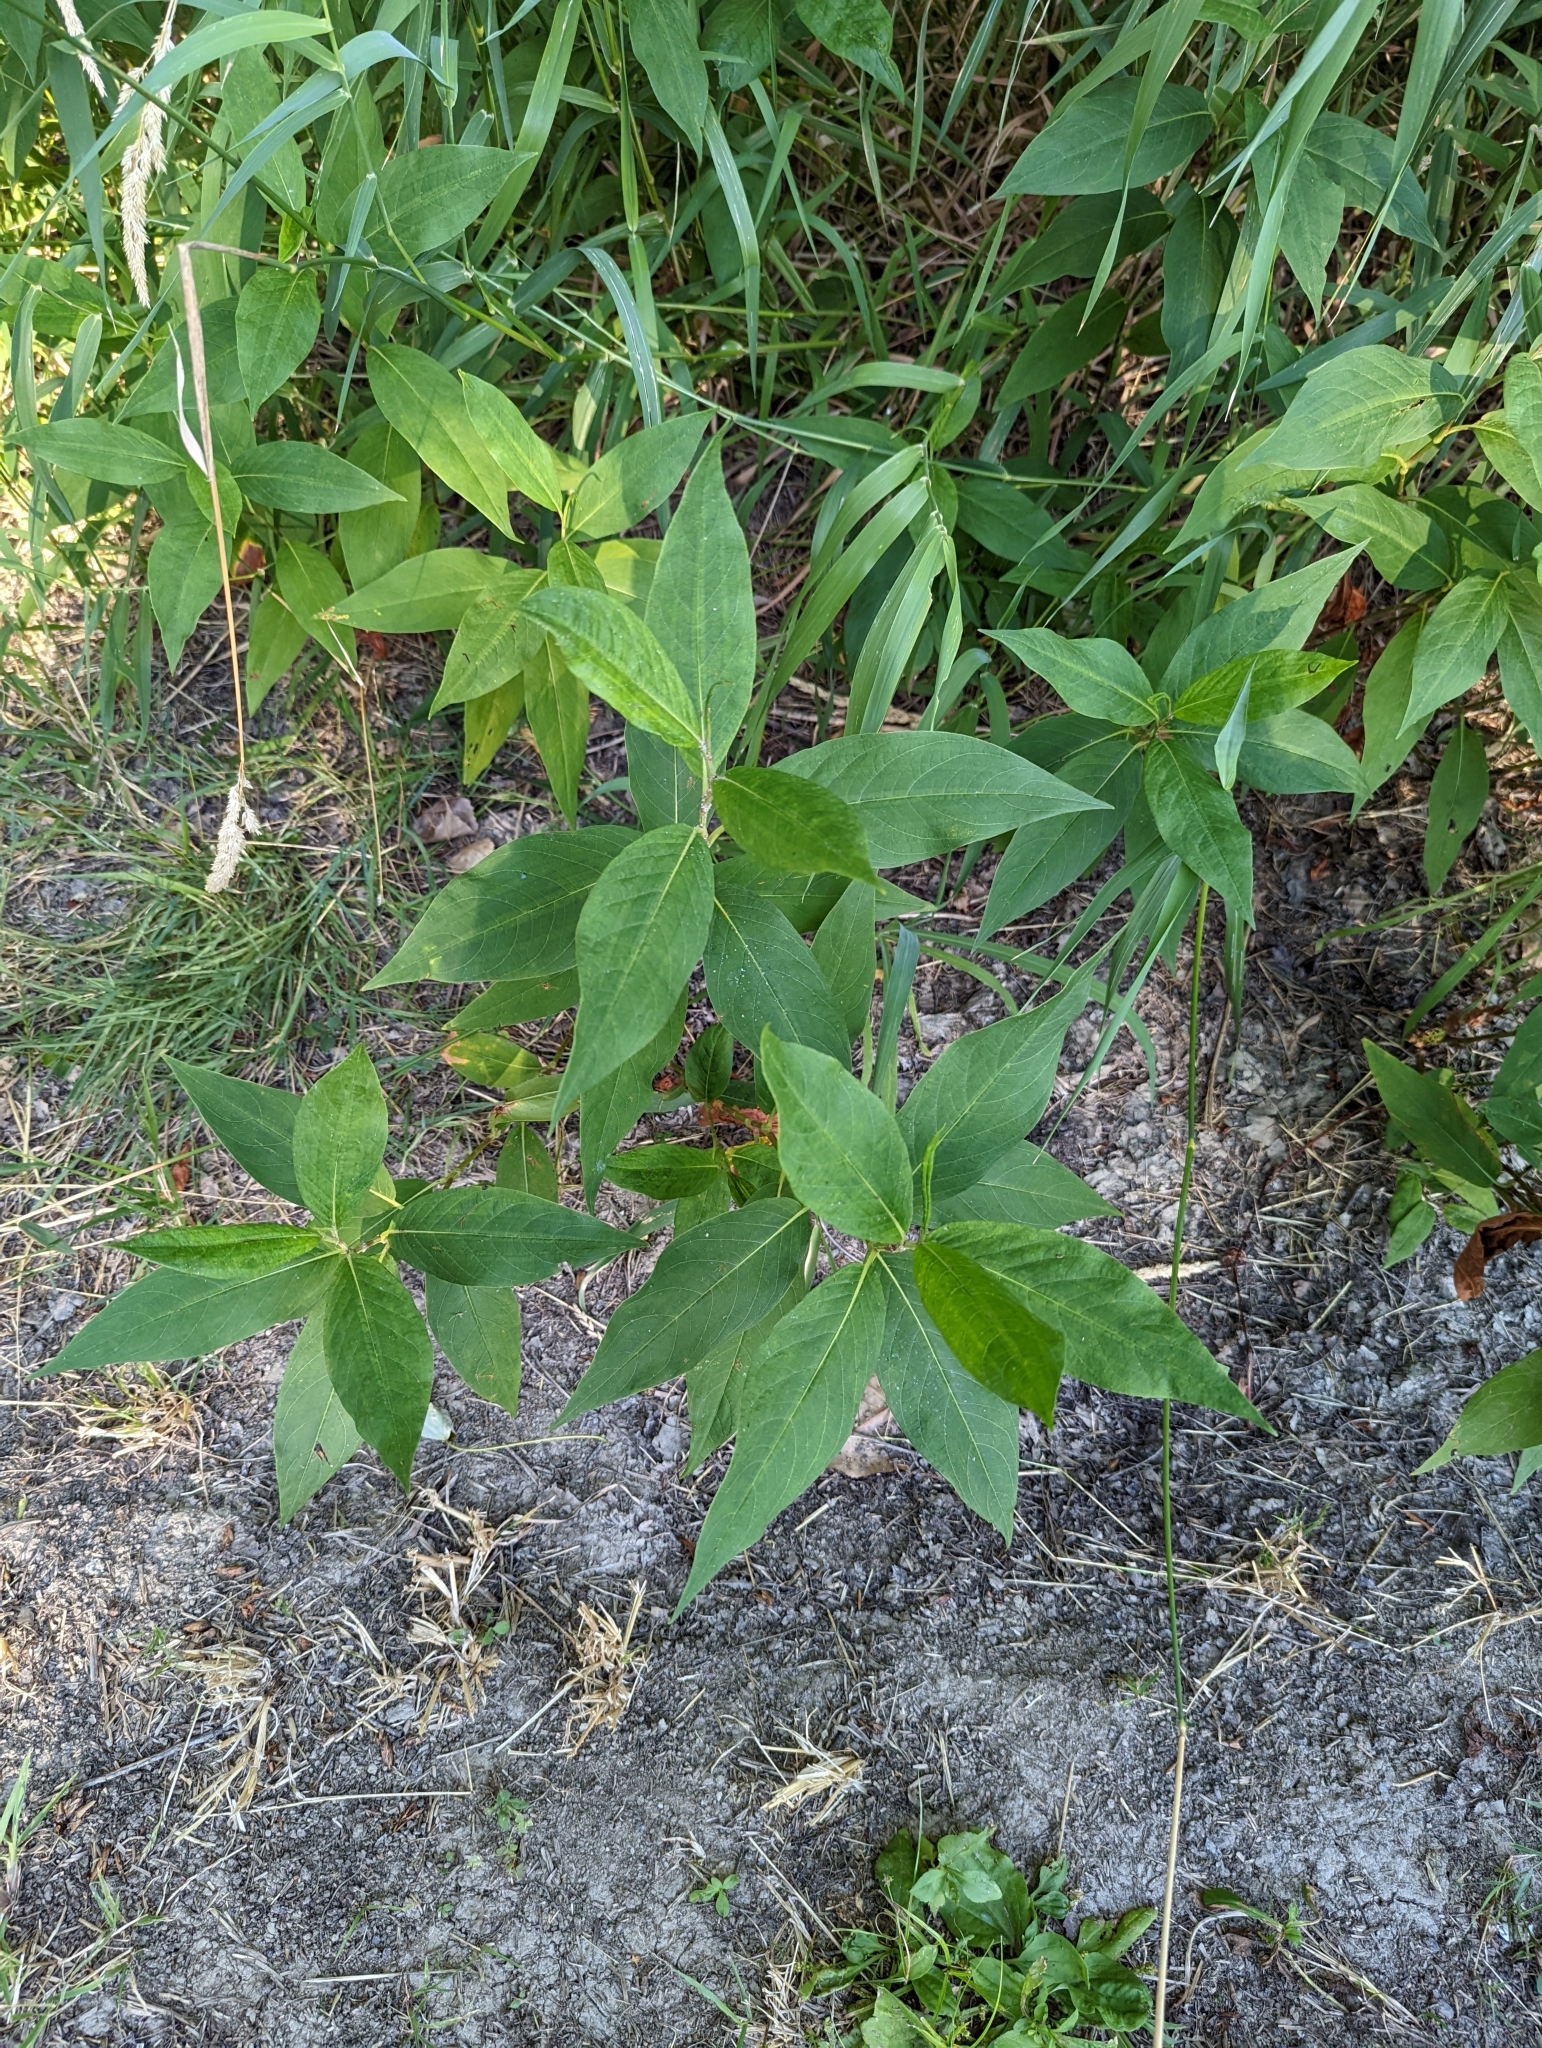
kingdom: Plantae
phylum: Tracheophyta
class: Magnoliopsida
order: Caryophyllales
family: Polygonaceae
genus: Persicaria
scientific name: Persicaria virginiana
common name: Jumpseed
